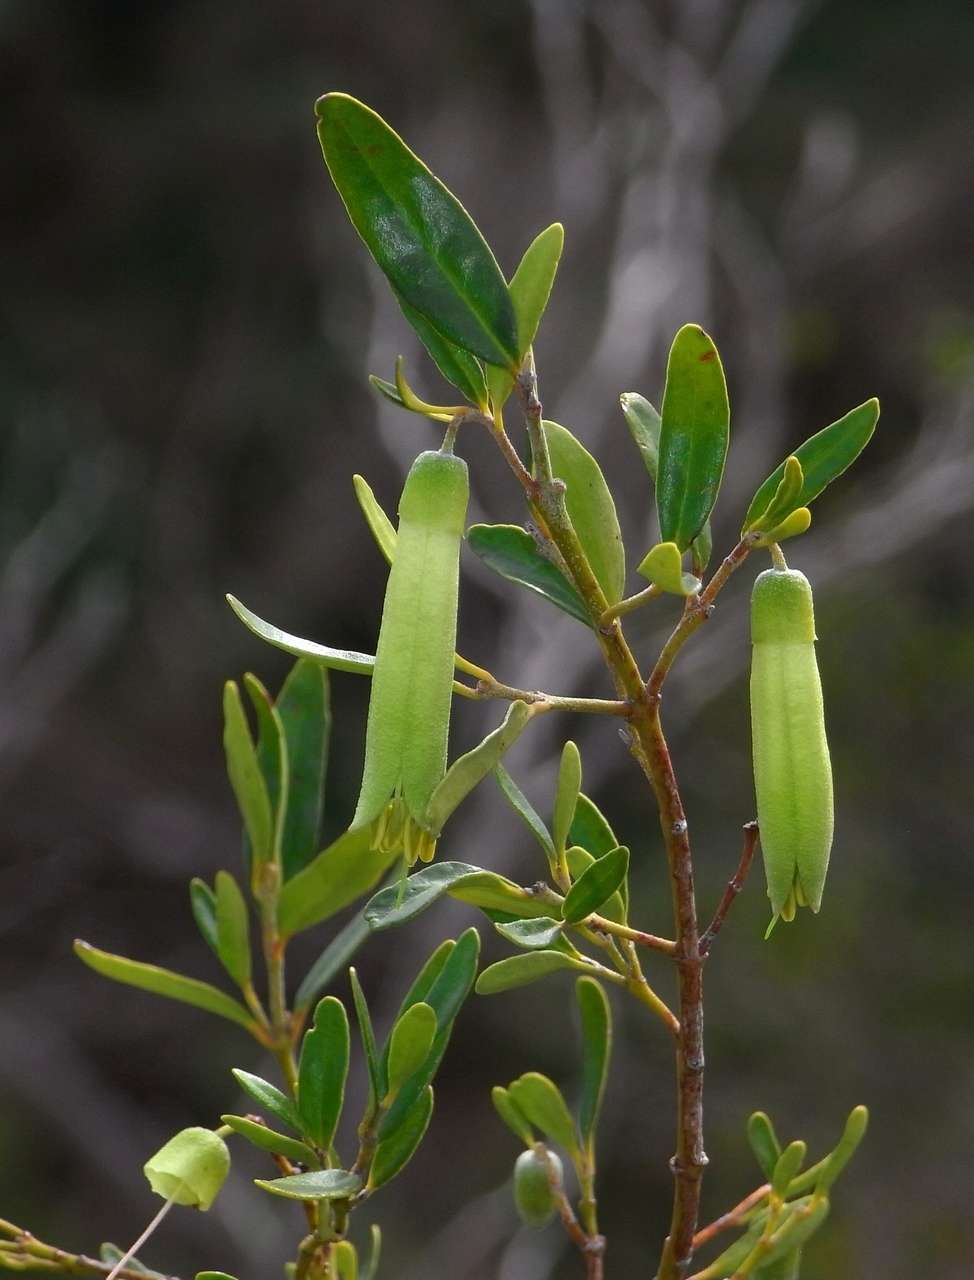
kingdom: Plantae
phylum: Tracheophyta
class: Magnoliopsida
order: Sapindales
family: Rutaceae
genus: Correa
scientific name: Correa glabra
